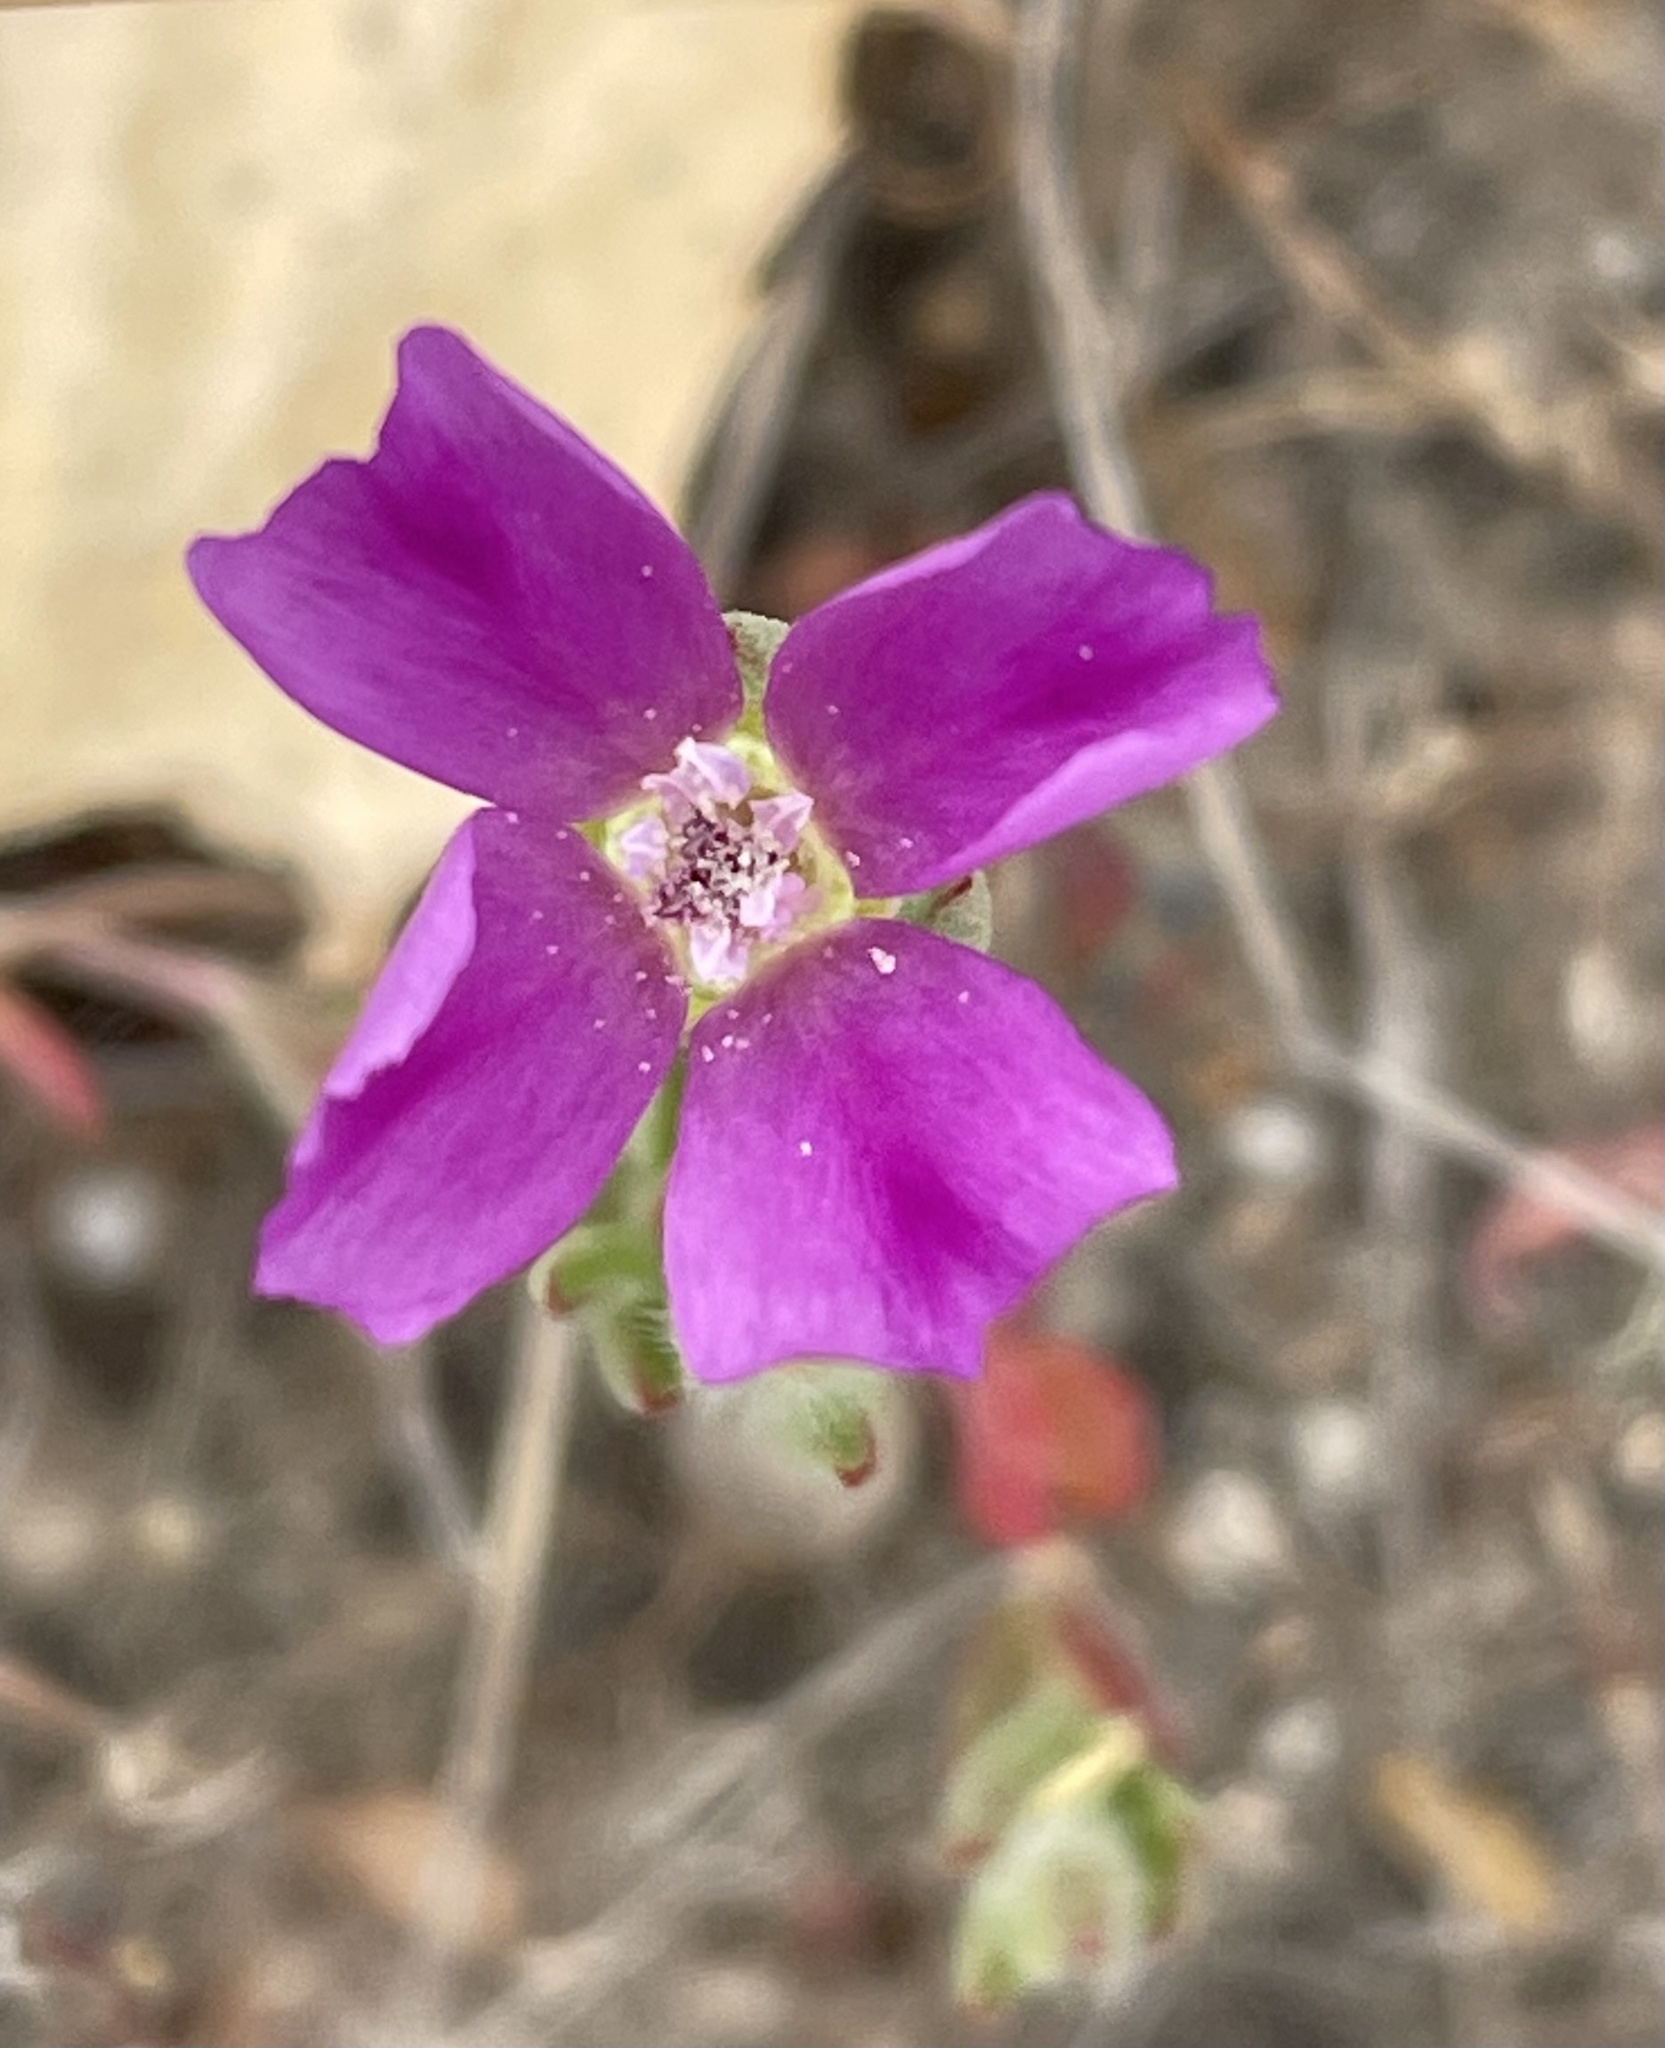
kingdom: Plantae
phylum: Tracheophyta
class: Magnoliopsida
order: Myrtales
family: Onagraceae
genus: Clarkia
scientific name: Clarkia purpurea
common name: Purple clarkia
